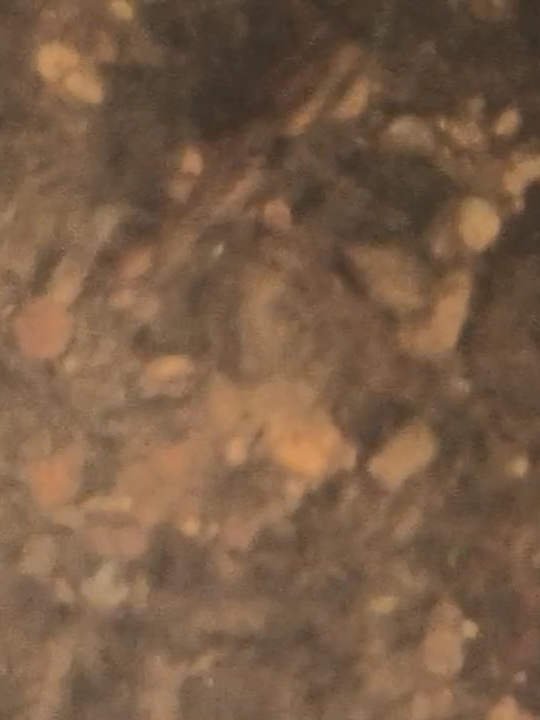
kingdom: Animalia
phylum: Chordata
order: Cypriniformes
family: Cyprinidae
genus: Haludaria
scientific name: Haludaria fasciata
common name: Melon barb
